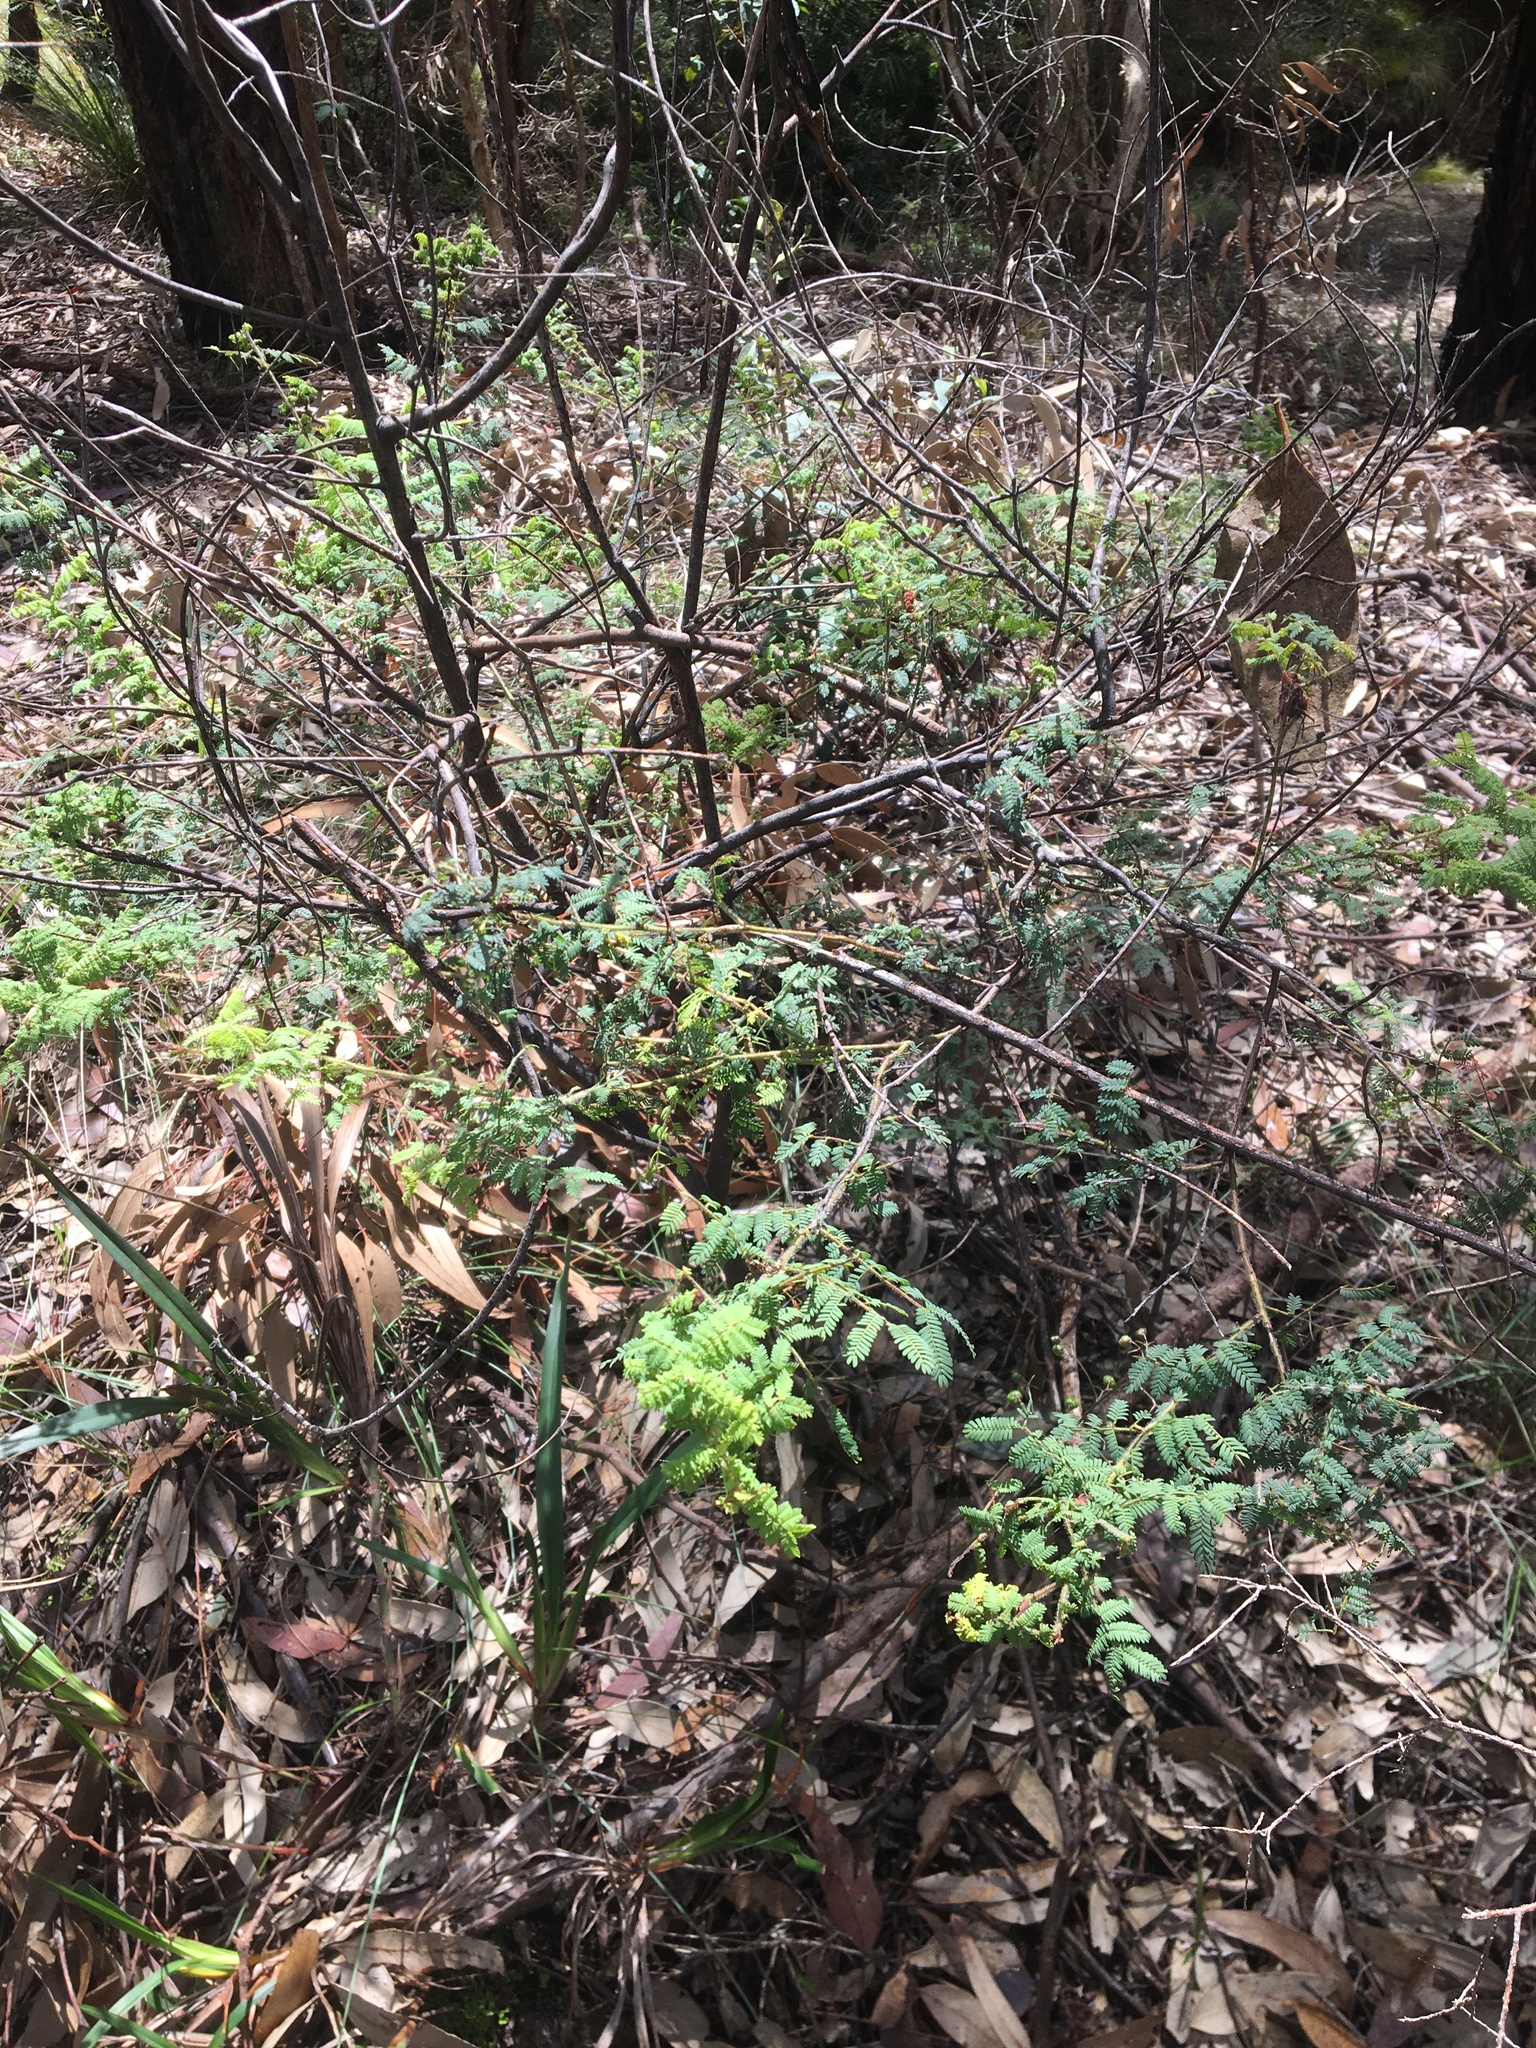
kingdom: Plantae
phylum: Tracheophyta
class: Magnoliopsida
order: Fabales
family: Fabaceae
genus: Acacia
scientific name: Acacia pubescens
